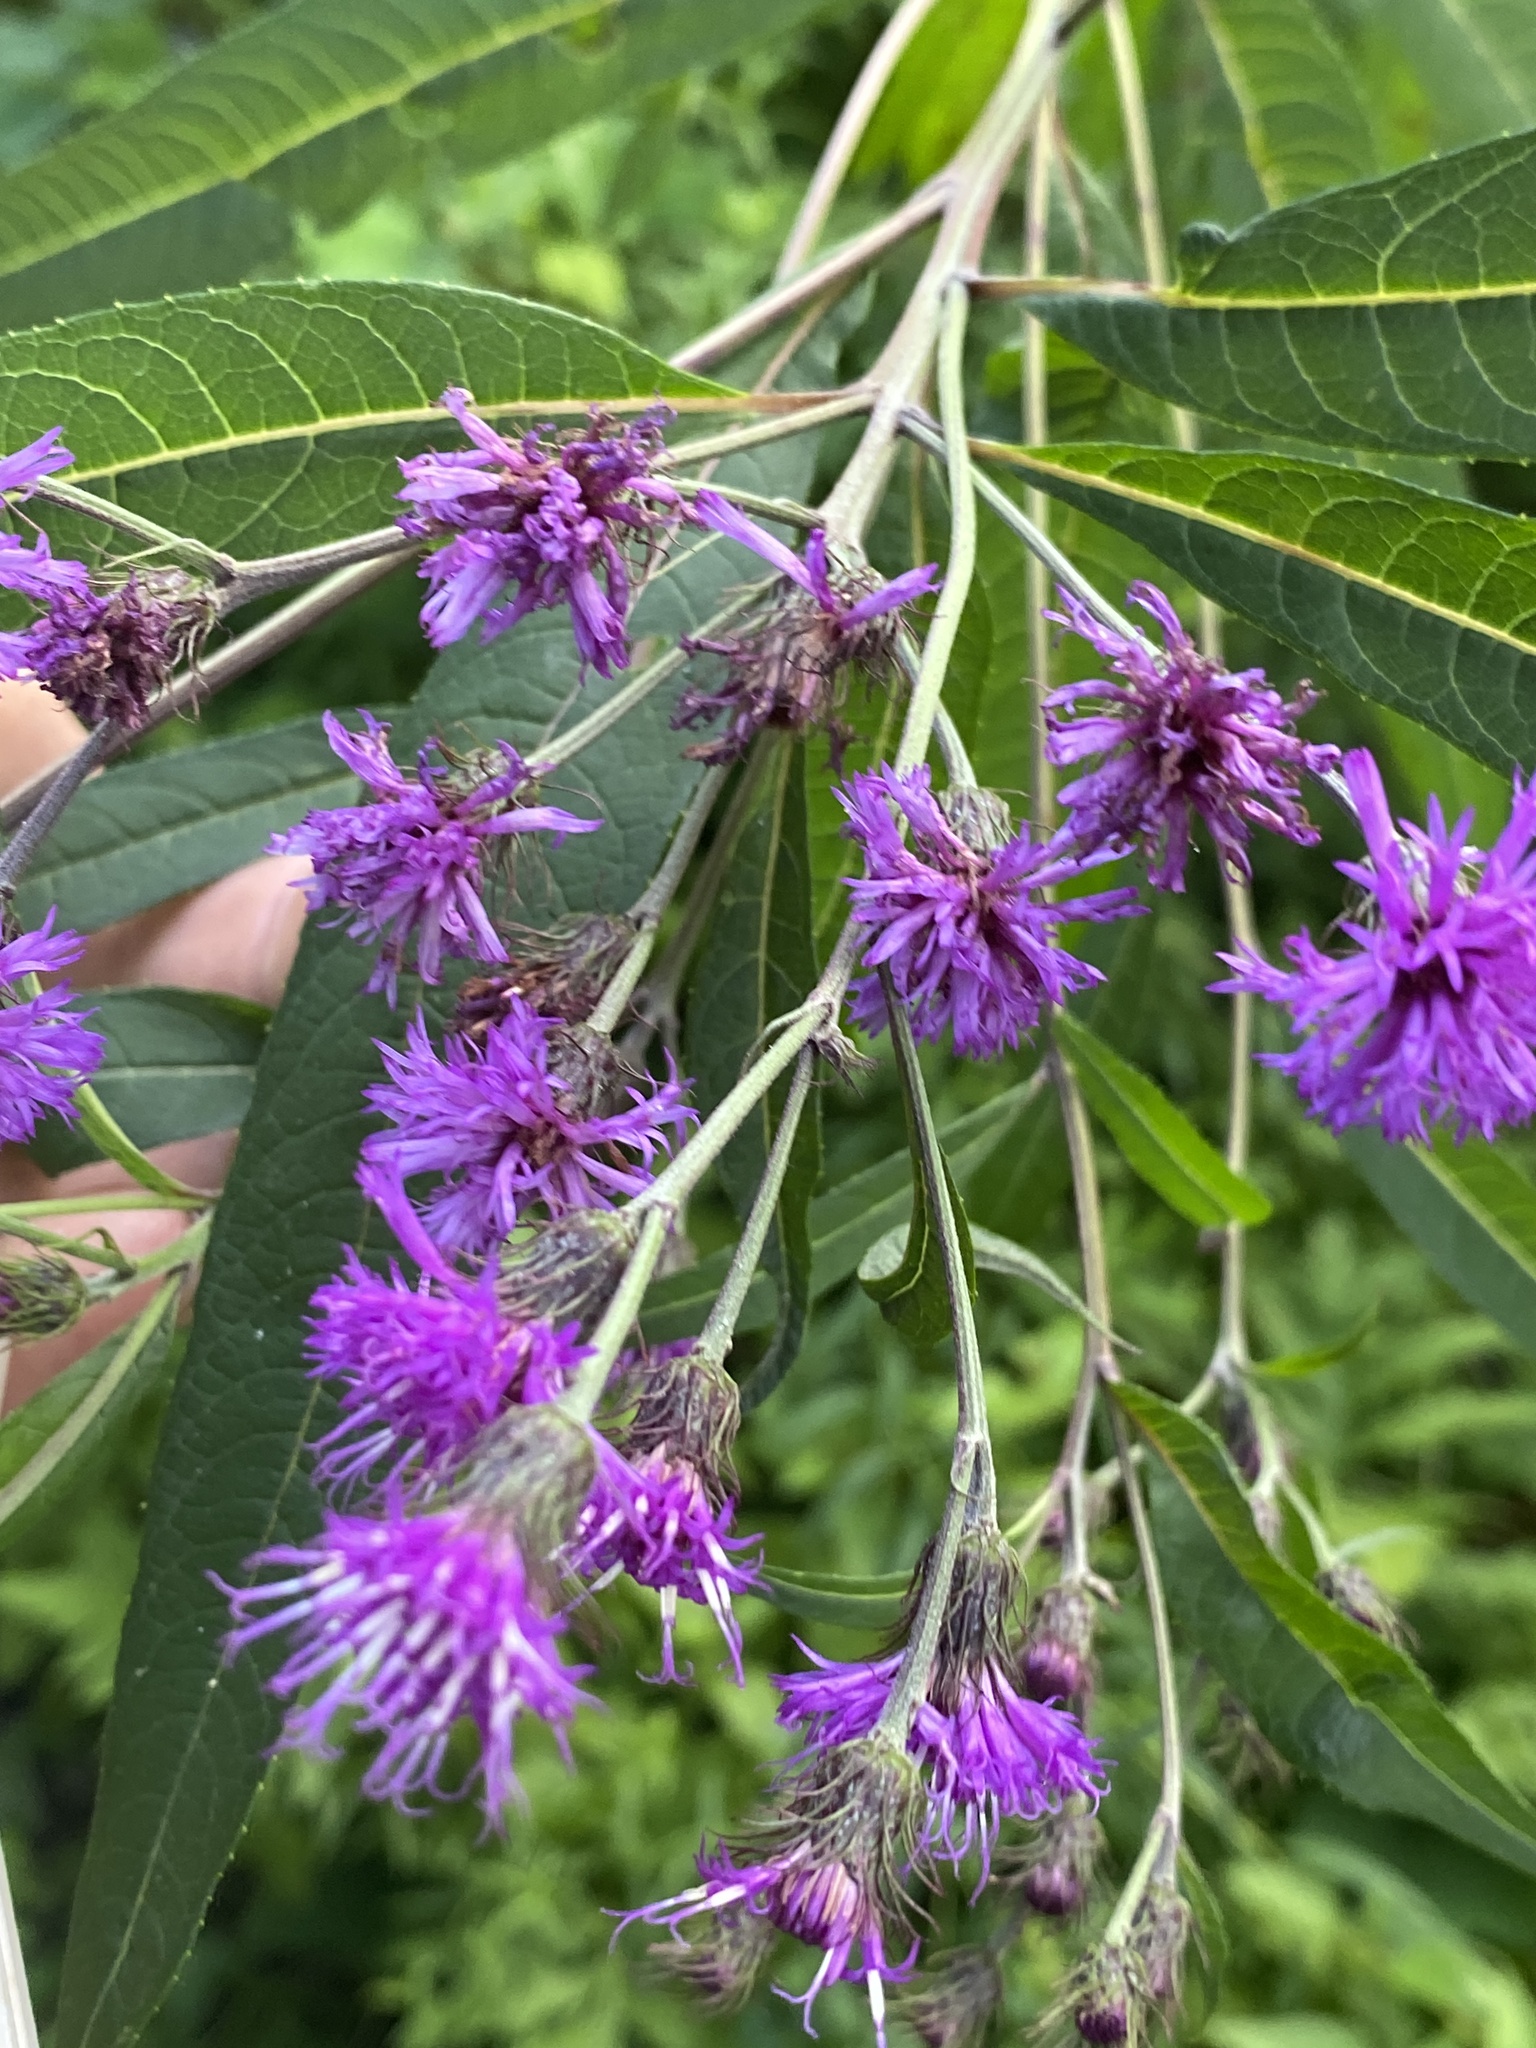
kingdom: Plantae
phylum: Tracheophyta
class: Magnoliopsida
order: Asterales
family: Asteraceae
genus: Vernonia
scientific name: Vernonia noveboracensis
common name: New york ironweed
